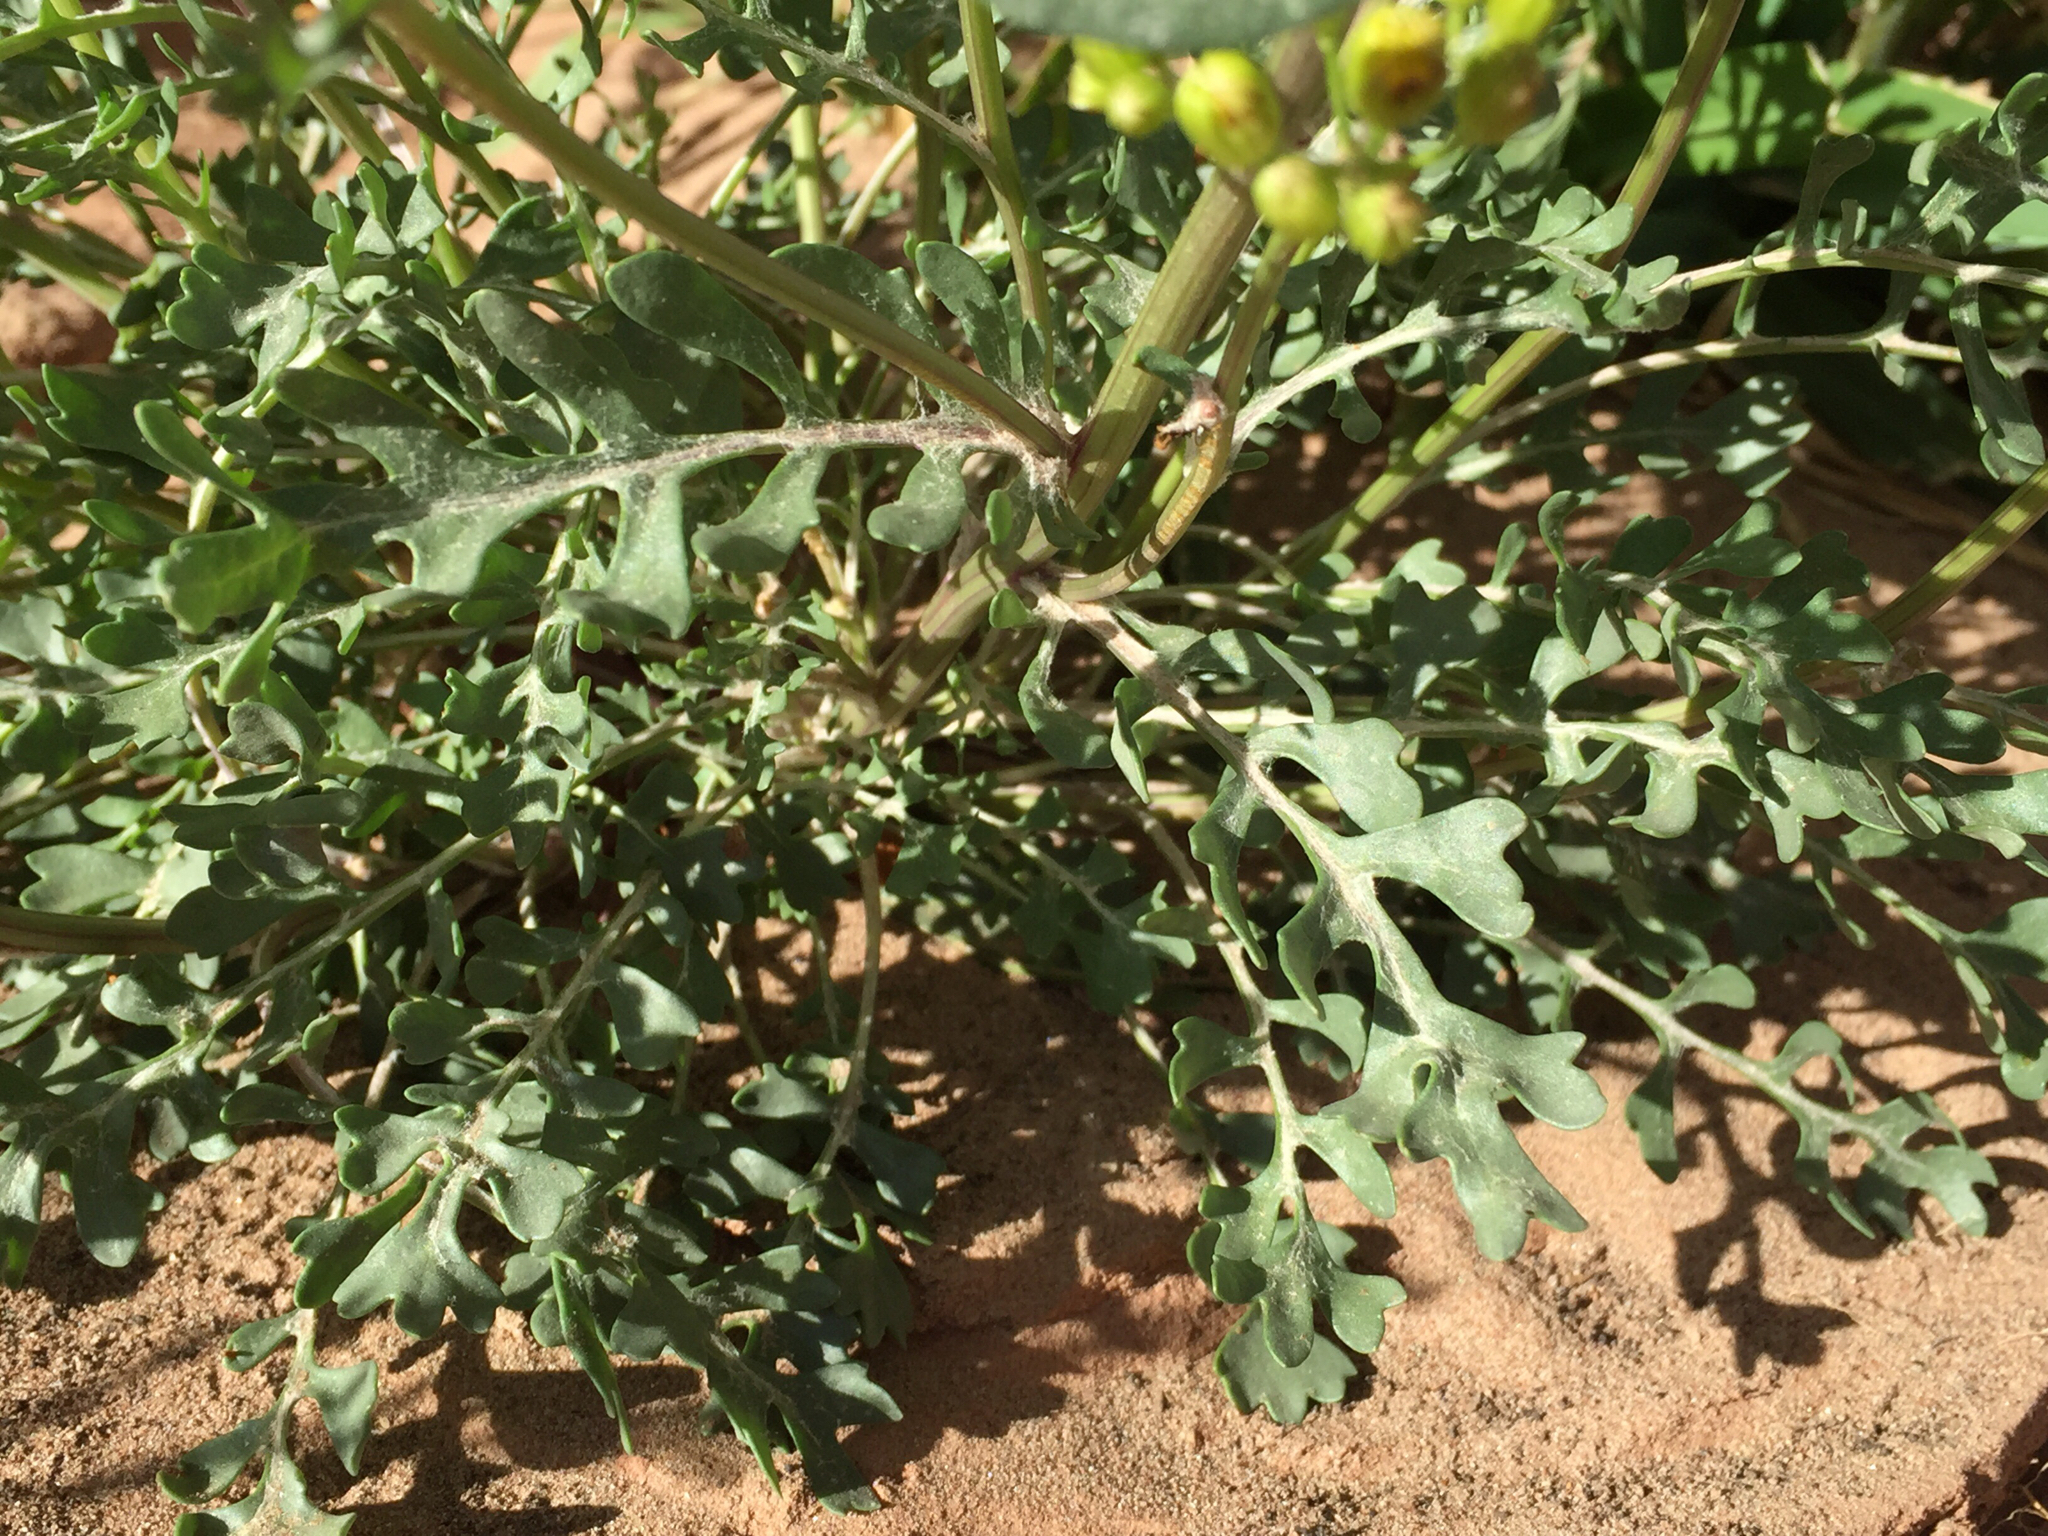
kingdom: Plantae
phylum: Tracheophyta
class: Magnoliopsida
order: Asterales
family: Asteraceae
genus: Packera
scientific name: Packera multilobata
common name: Lobe-leaf groundsel
